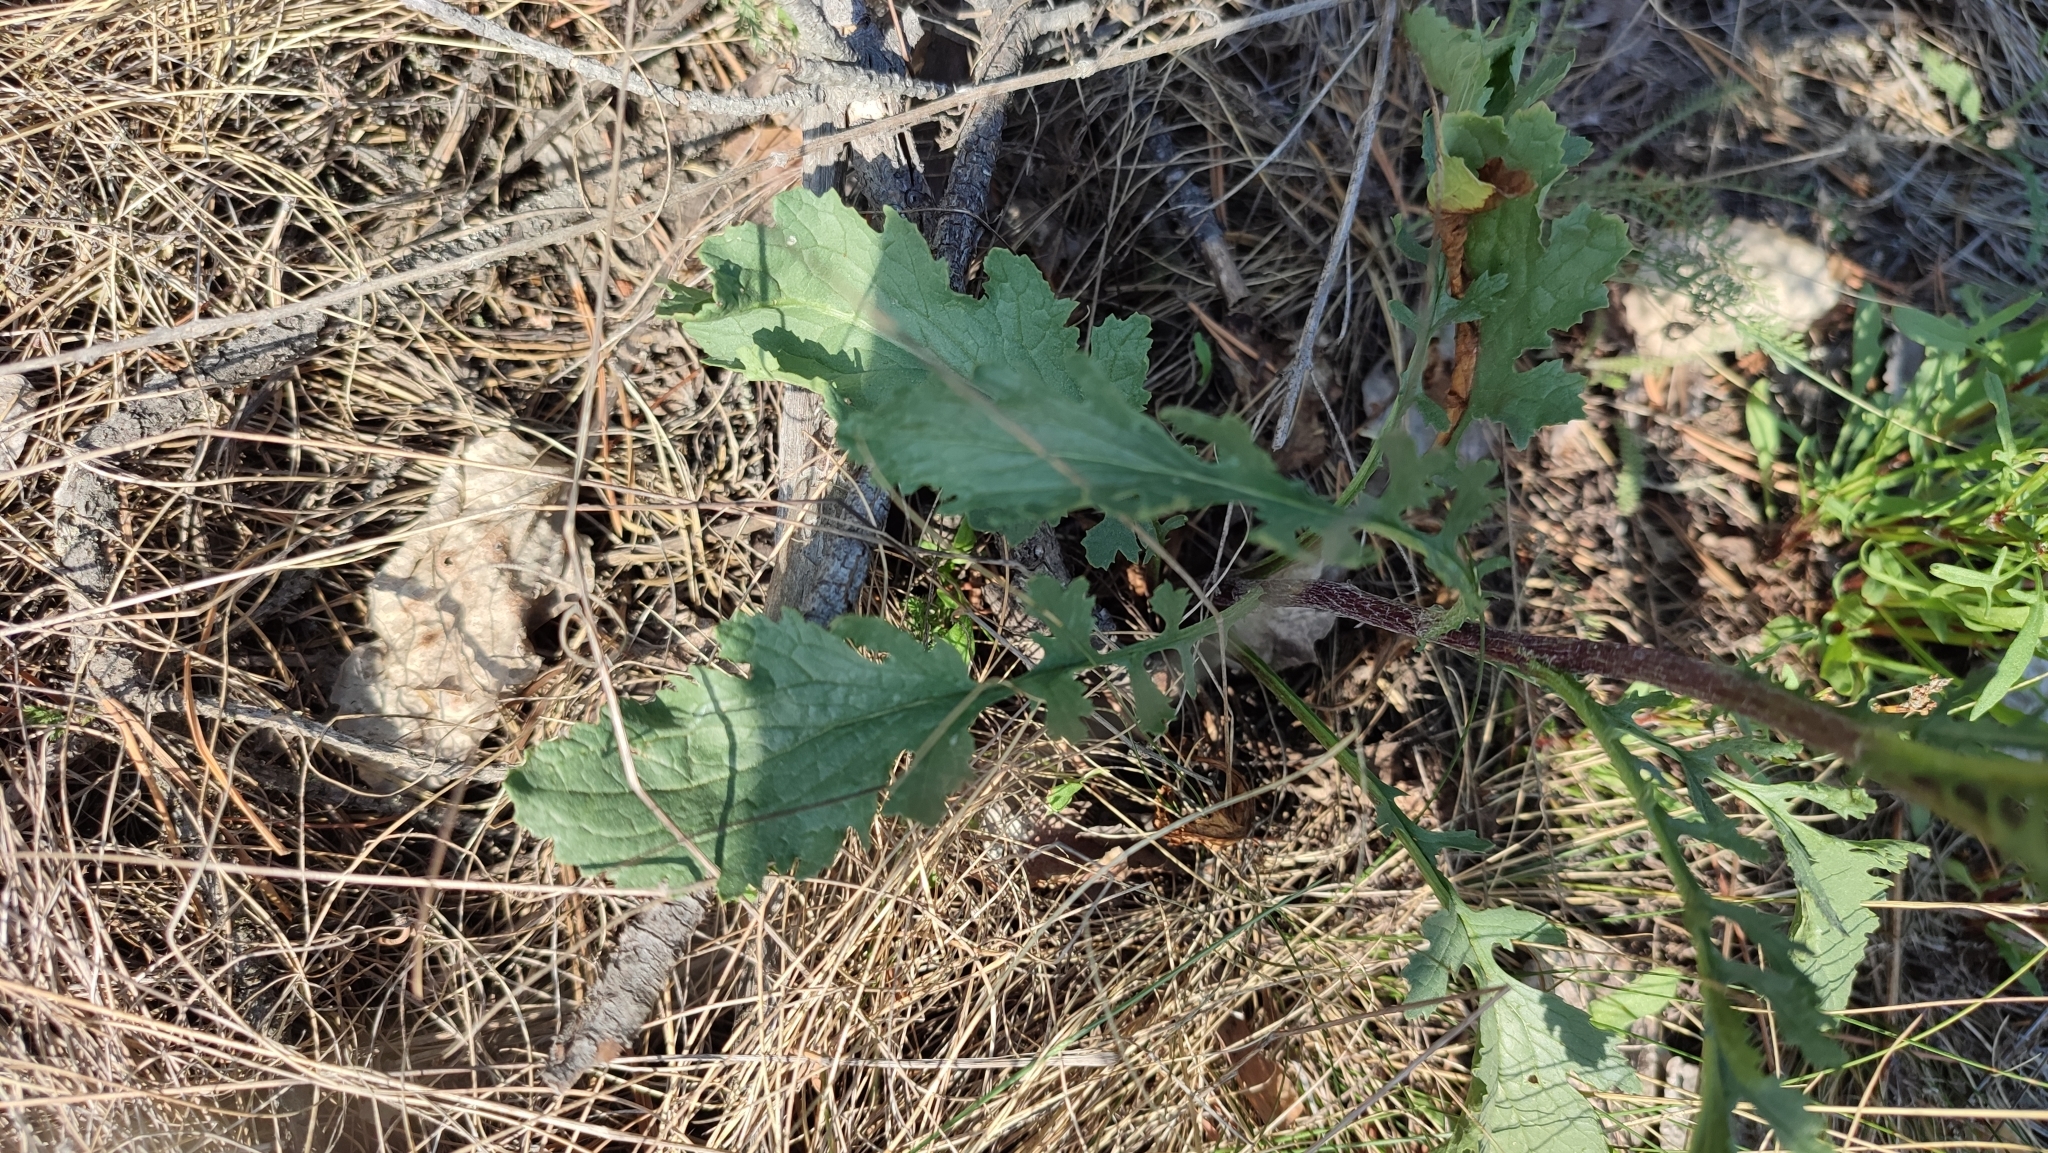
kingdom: Plantae
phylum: Tracheophyta
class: Magnoliopsida
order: Asterales
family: Asteraceae
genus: Jacobaea
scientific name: Jacobaea vulgaris
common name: Stinking willie
